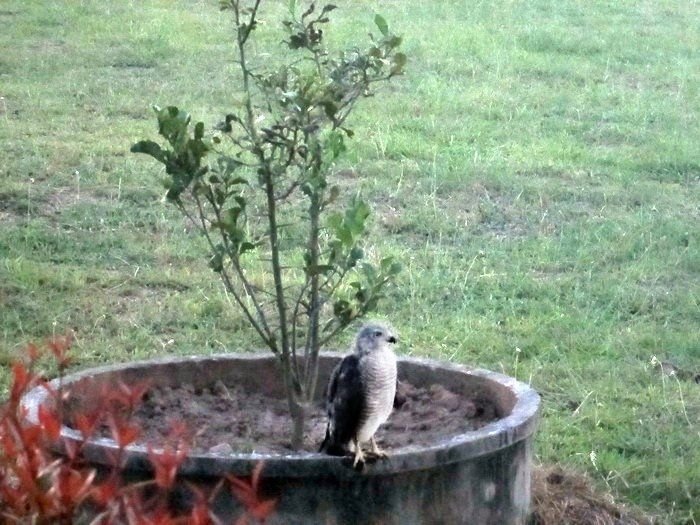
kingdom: Animalia
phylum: Chordata
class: Aves
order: Accipitriformes
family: Accipitridae
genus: Accipiter
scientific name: Accipiter badius
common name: Shikra
